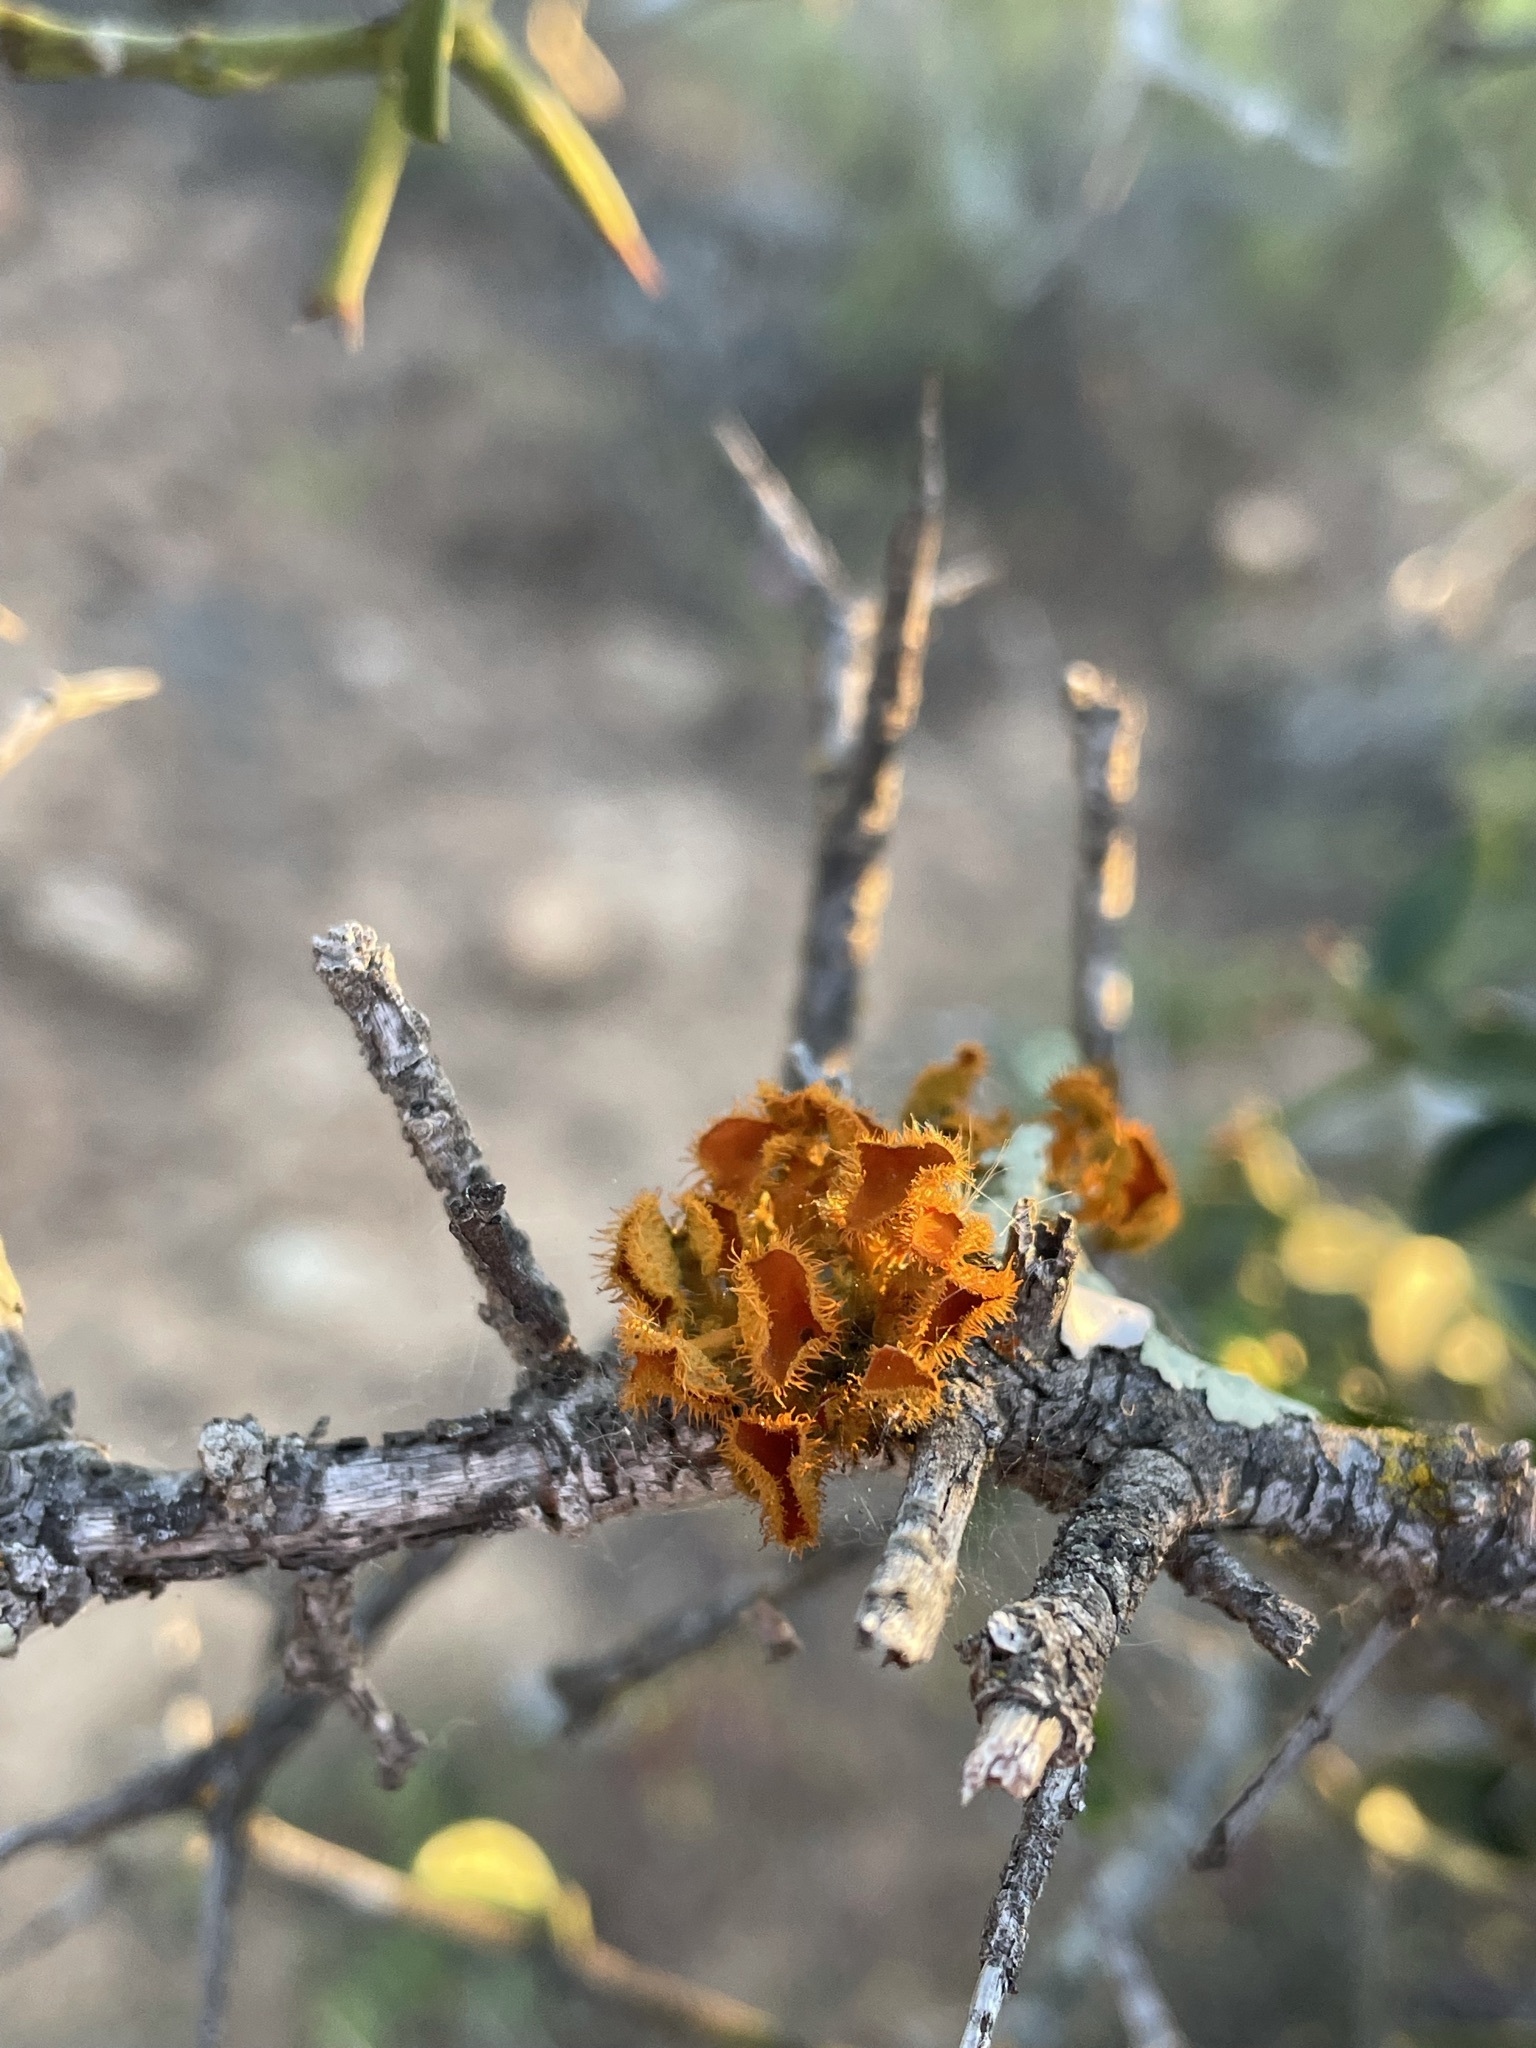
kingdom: Fungi
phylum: Ascomycota
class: Lecanoromycetes
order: Teloschistales
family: Teloschistaceae
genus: Niorma
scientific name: Niorma chrysophthalma
